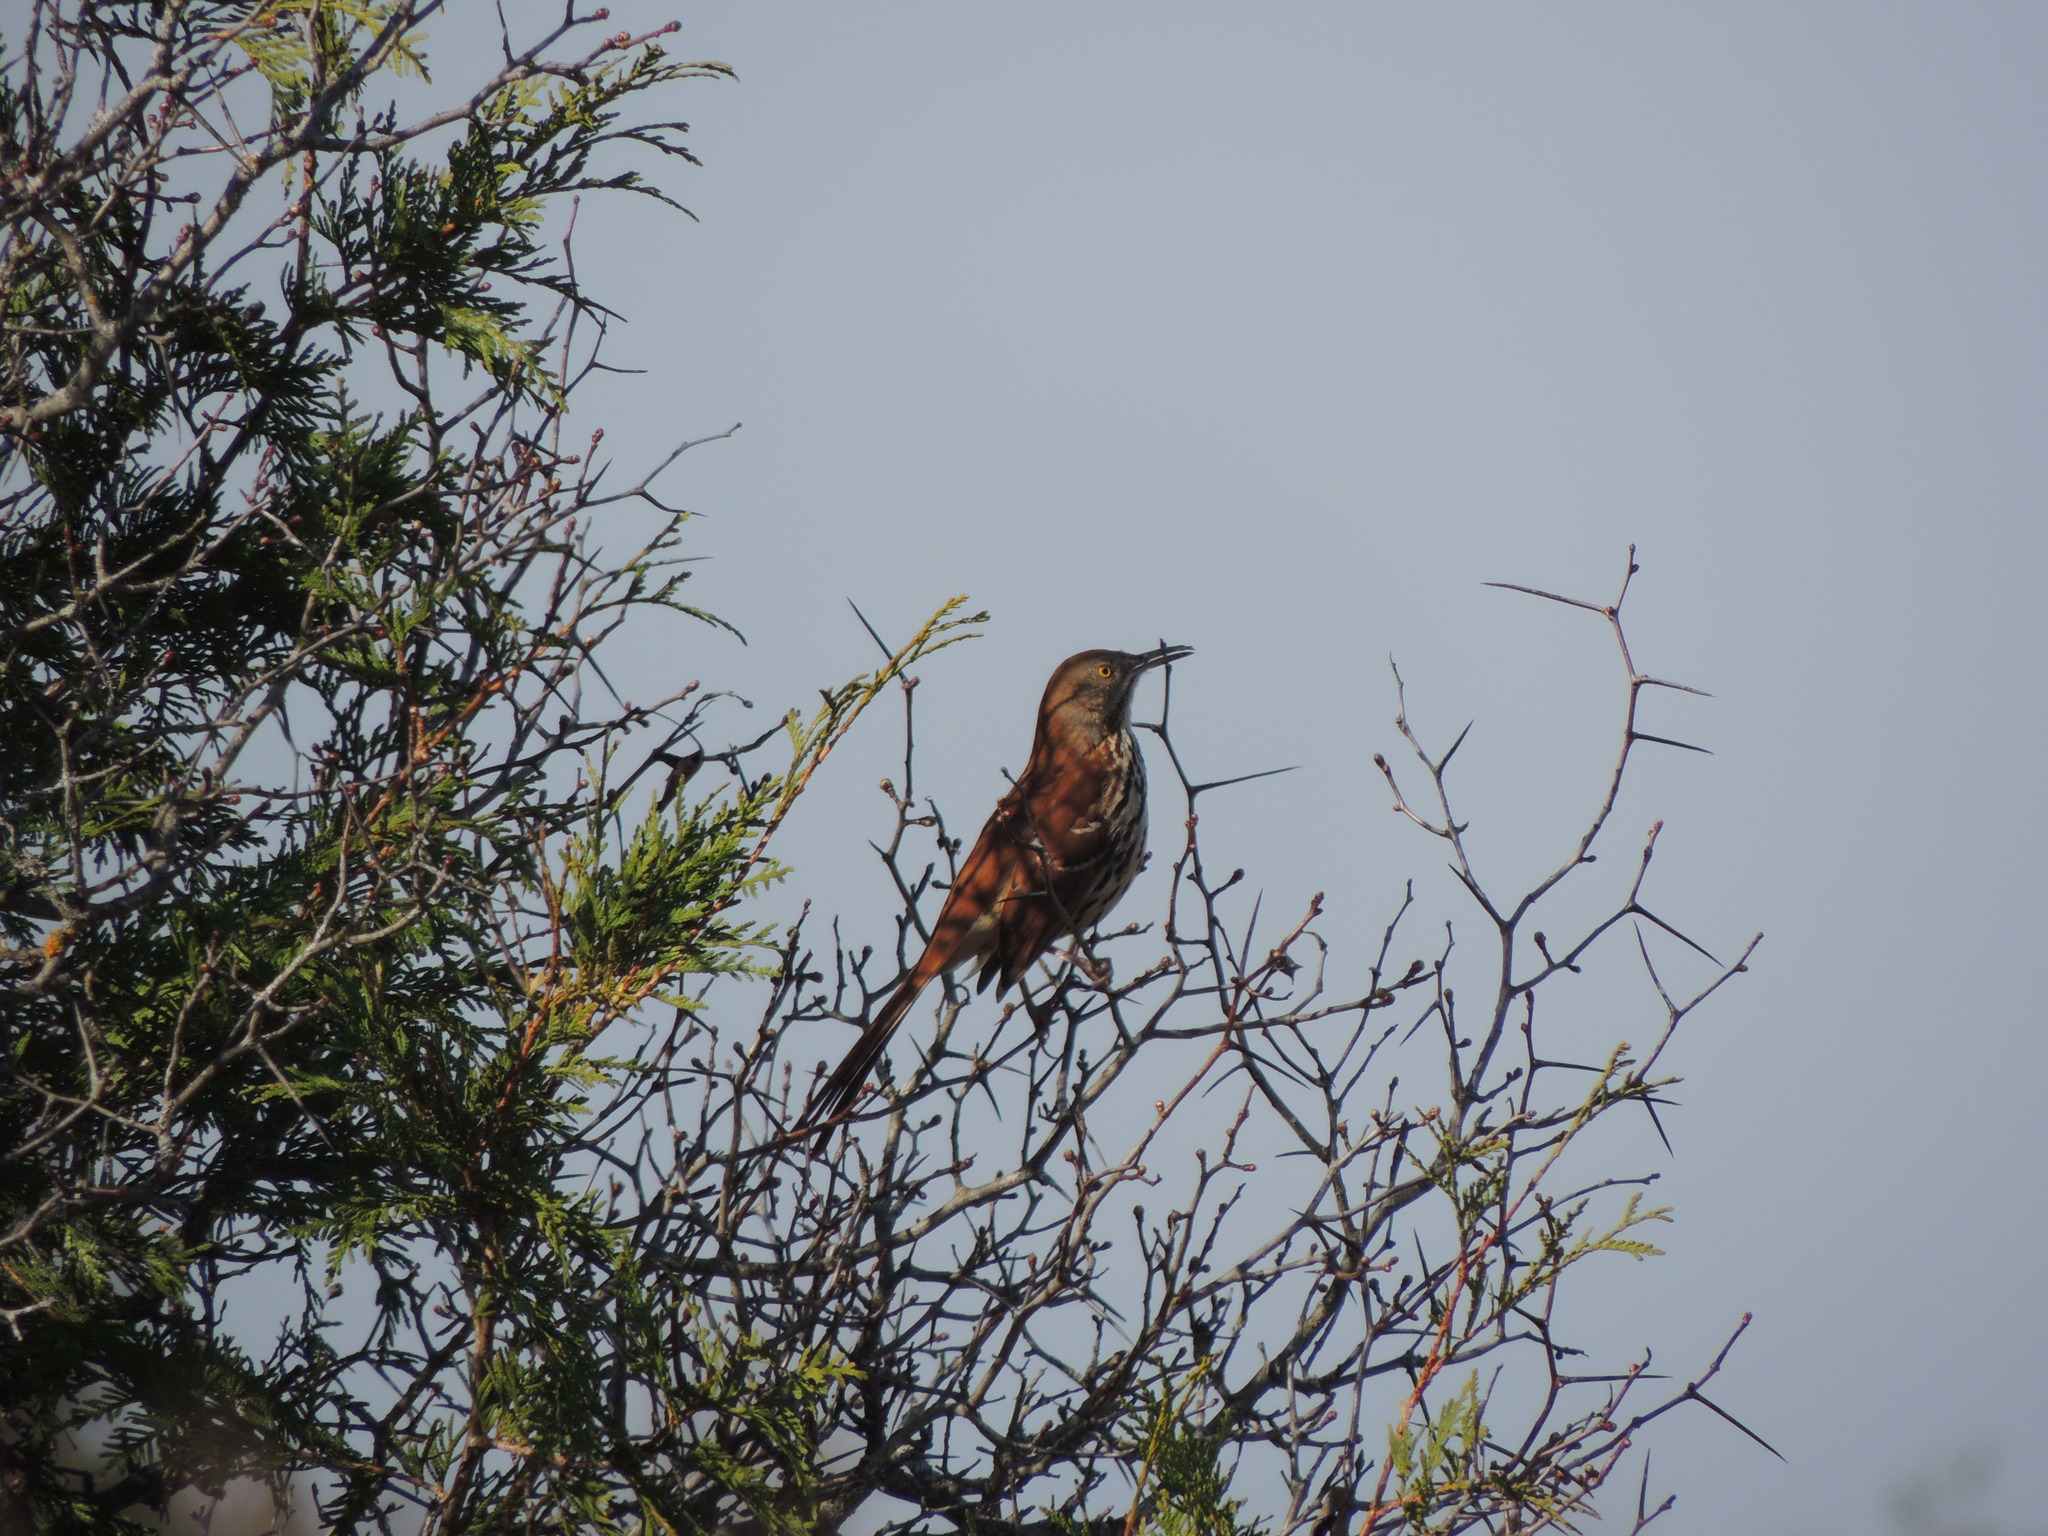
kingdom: Animalia
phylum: Chordata
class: Aves
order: Passeriformes
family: Mimidae
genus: Toxostoma
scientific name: Toxostoma rufum
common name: Brown thrasher
